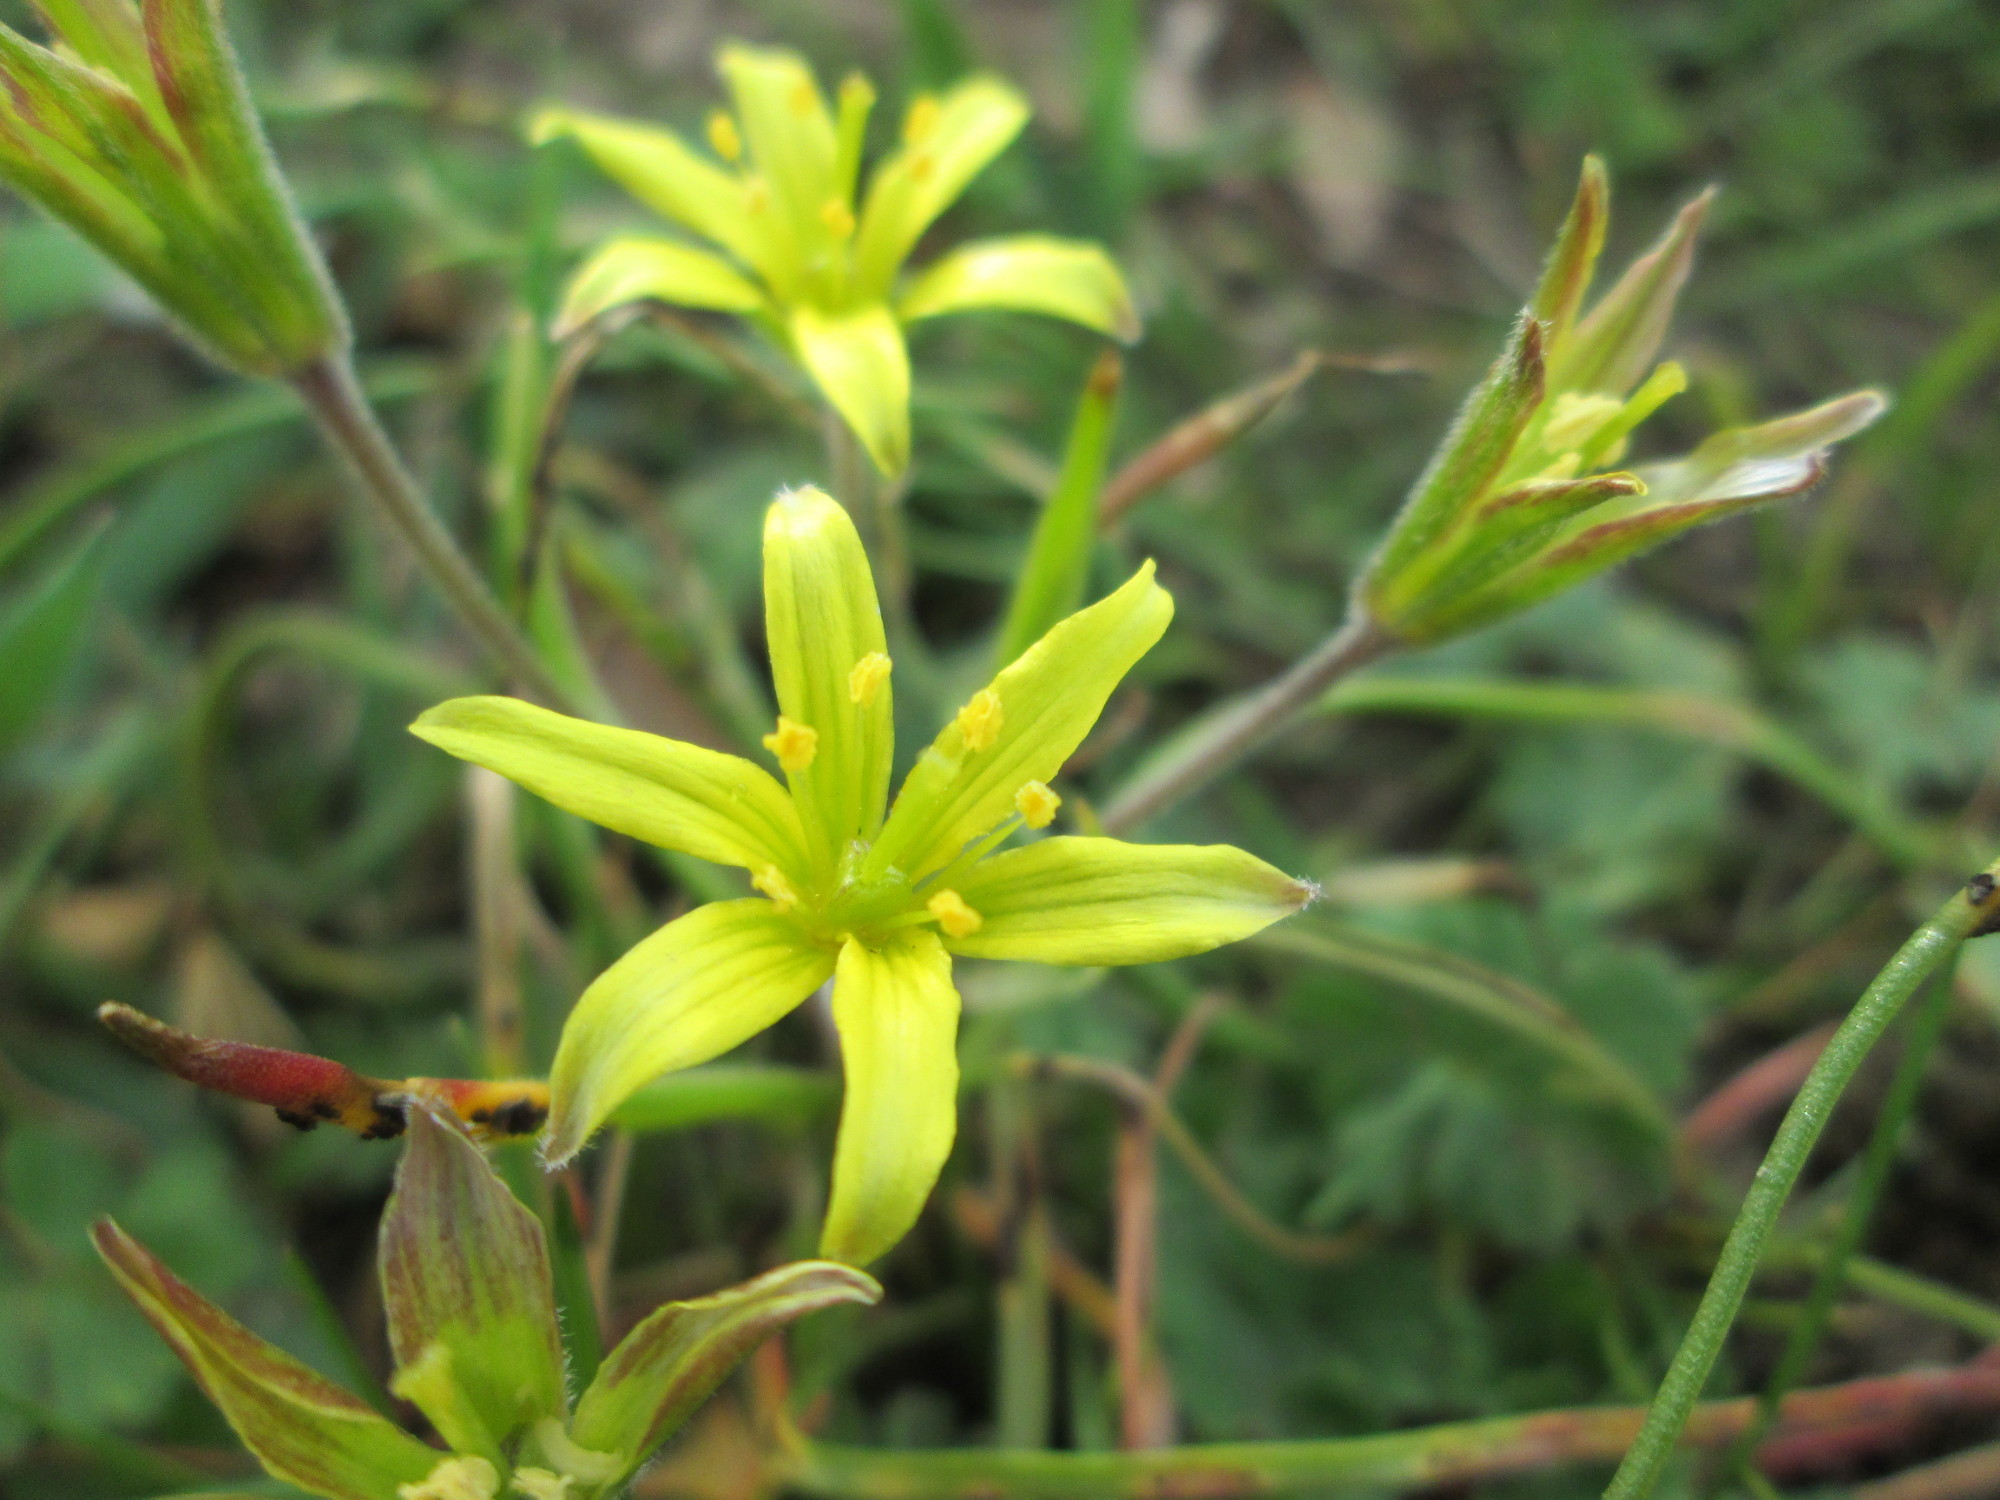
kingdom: Plantae
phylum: Tracheophyta
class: Liliopsida
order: Liliales
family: Liliaceae
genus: Gagea
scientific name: Gagea villosa
